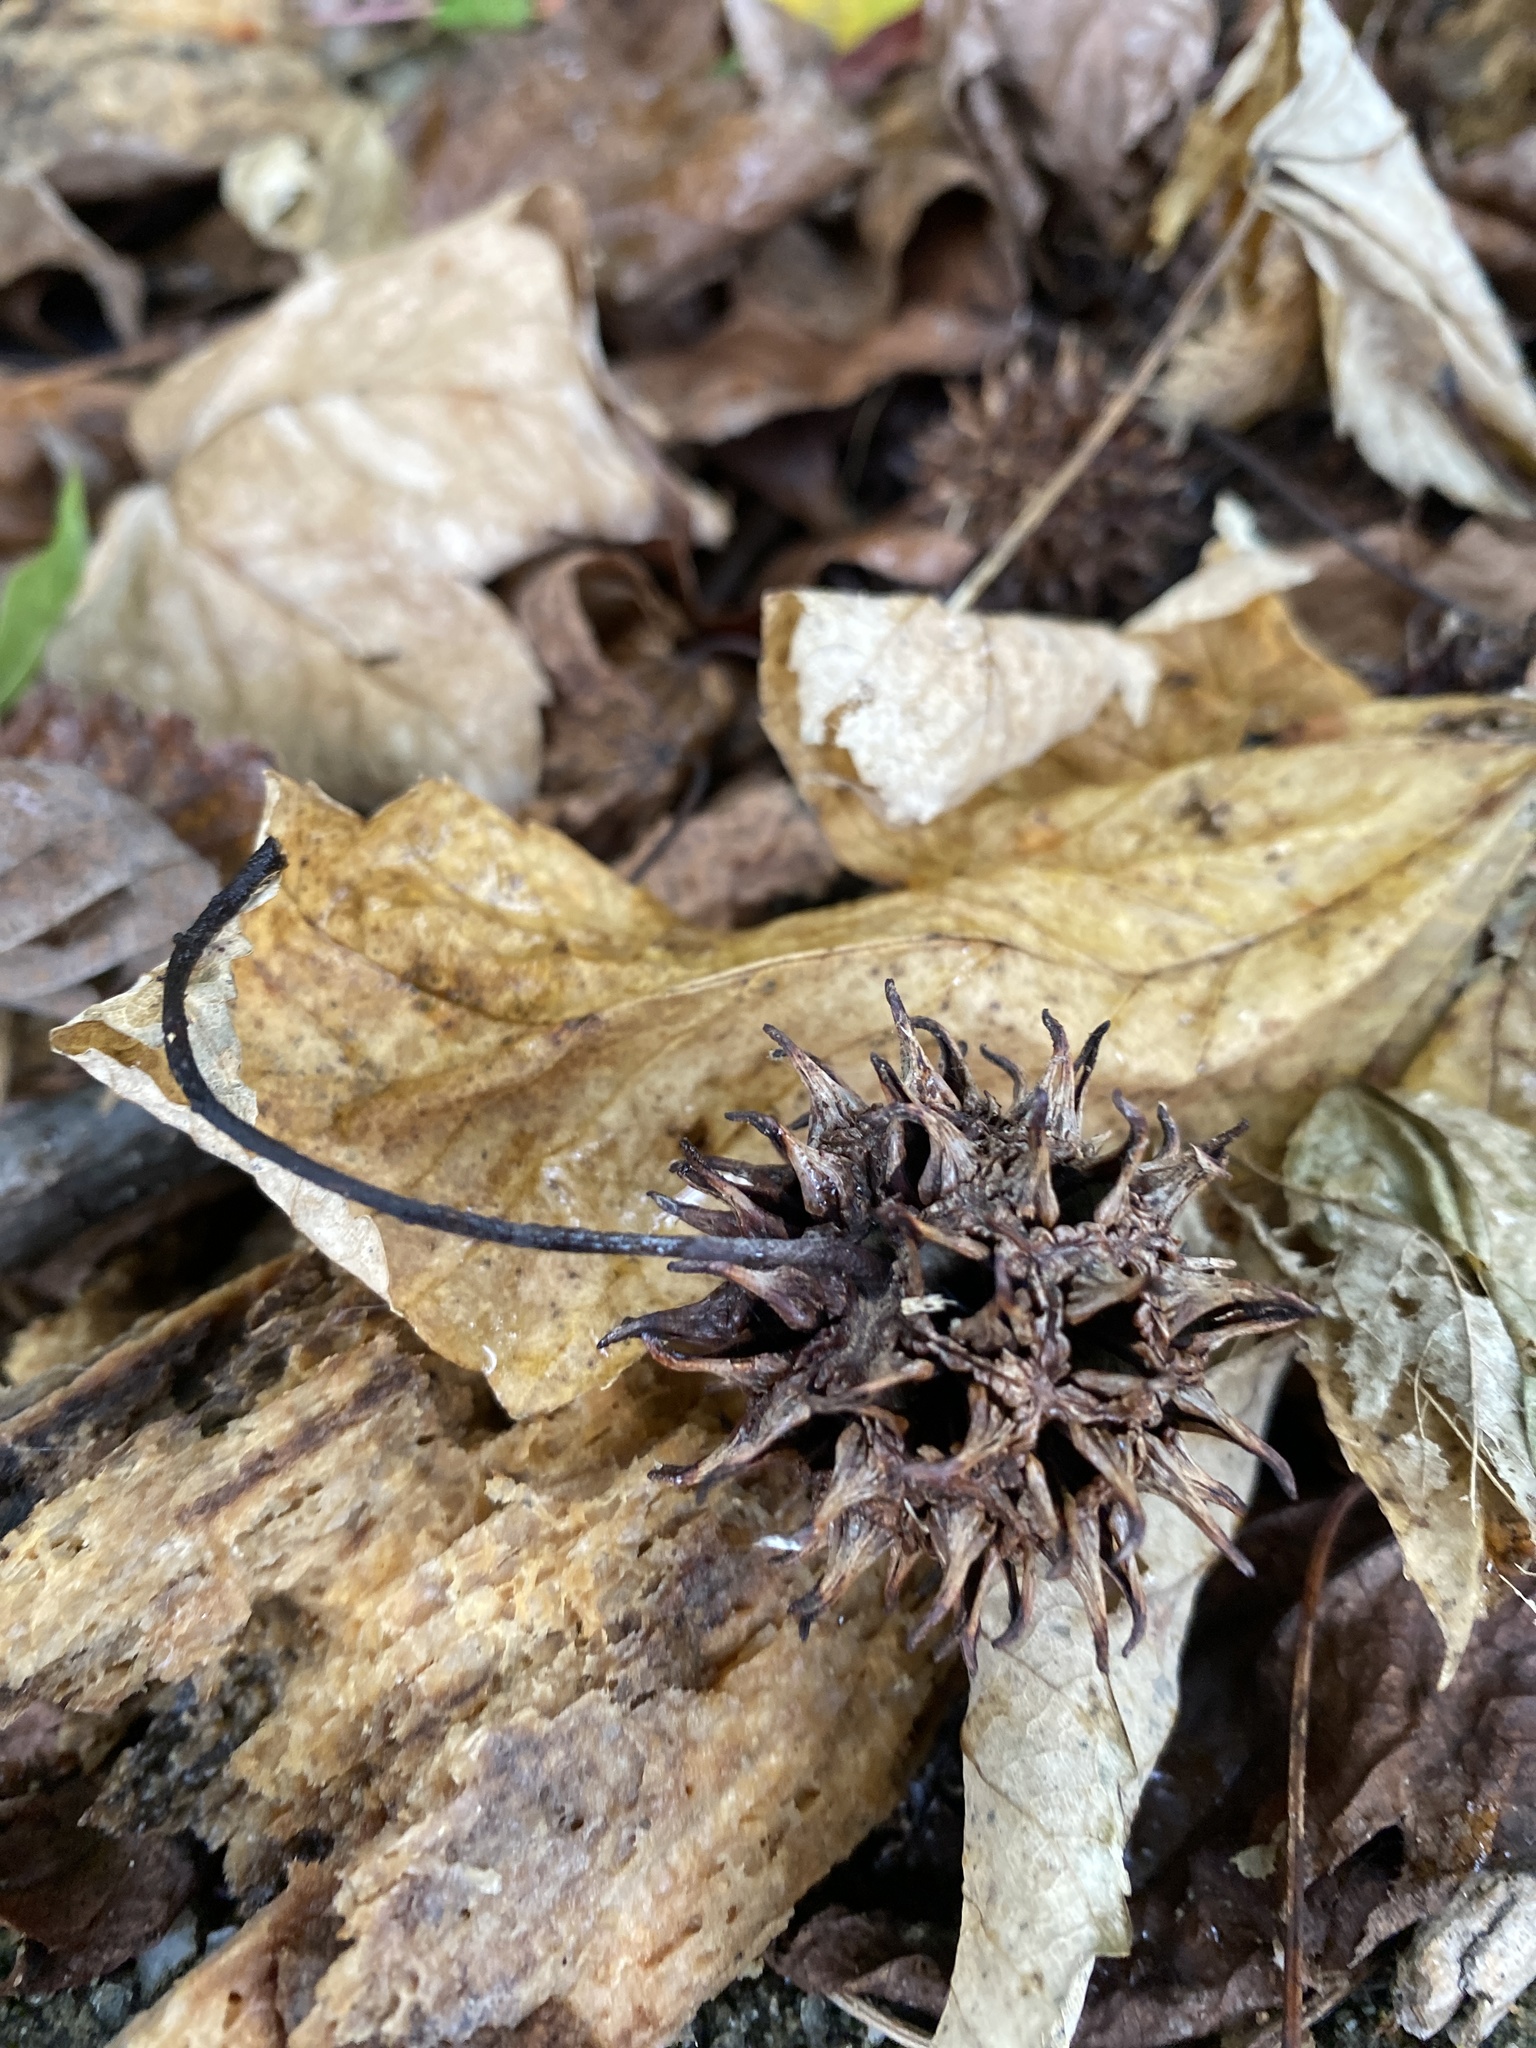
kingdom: Plantae
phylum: Tracheophyta
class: Magnoliopsida
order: Saxifragales
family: Altingiaceae
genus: Liquidambar
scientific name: Liquidambar styraciflua
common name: Sweet gum
